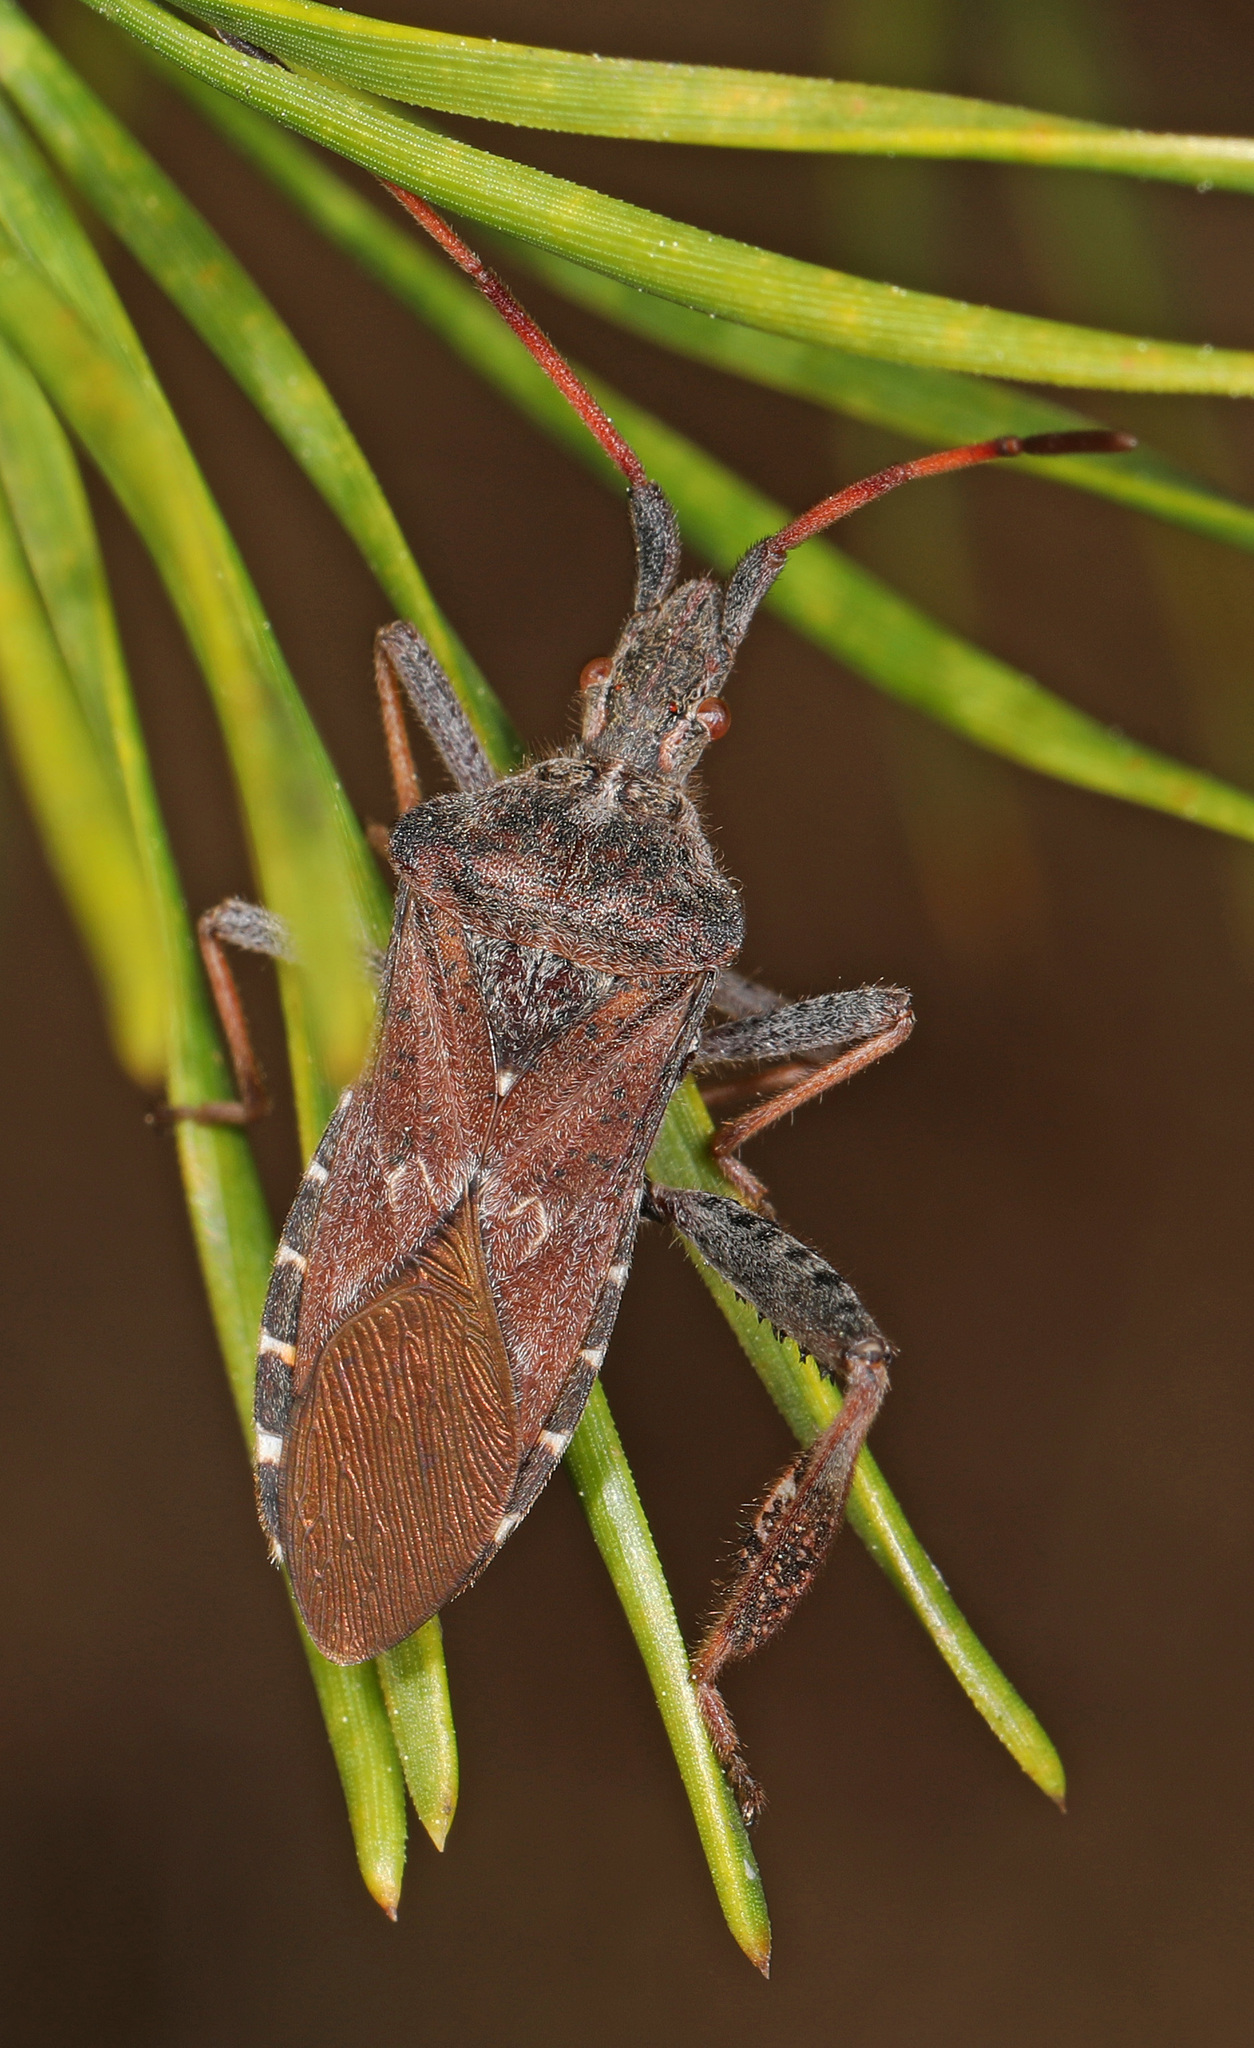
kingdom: Animalia
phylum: Arthropoda
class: Insecta
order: Hemiptera
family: Coreidae
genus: Leptoglossus
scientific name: Leptoglossus corculus
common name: Southern pine seed bug
